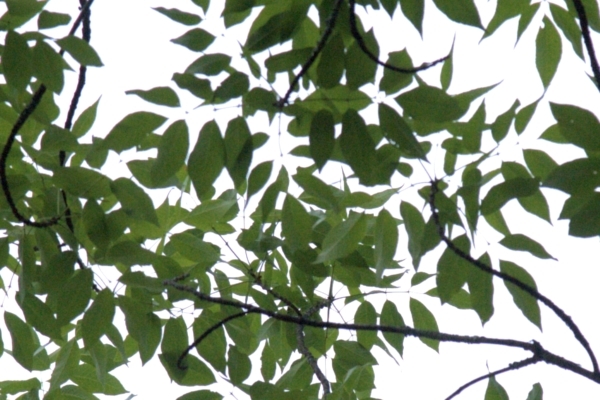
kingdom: Plantae
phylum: Tracheophyta
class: Magnoliopsida
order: Lamiales
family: Oleaceae
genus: Fraxinus
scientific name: Fraxinus americana
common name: White ash
